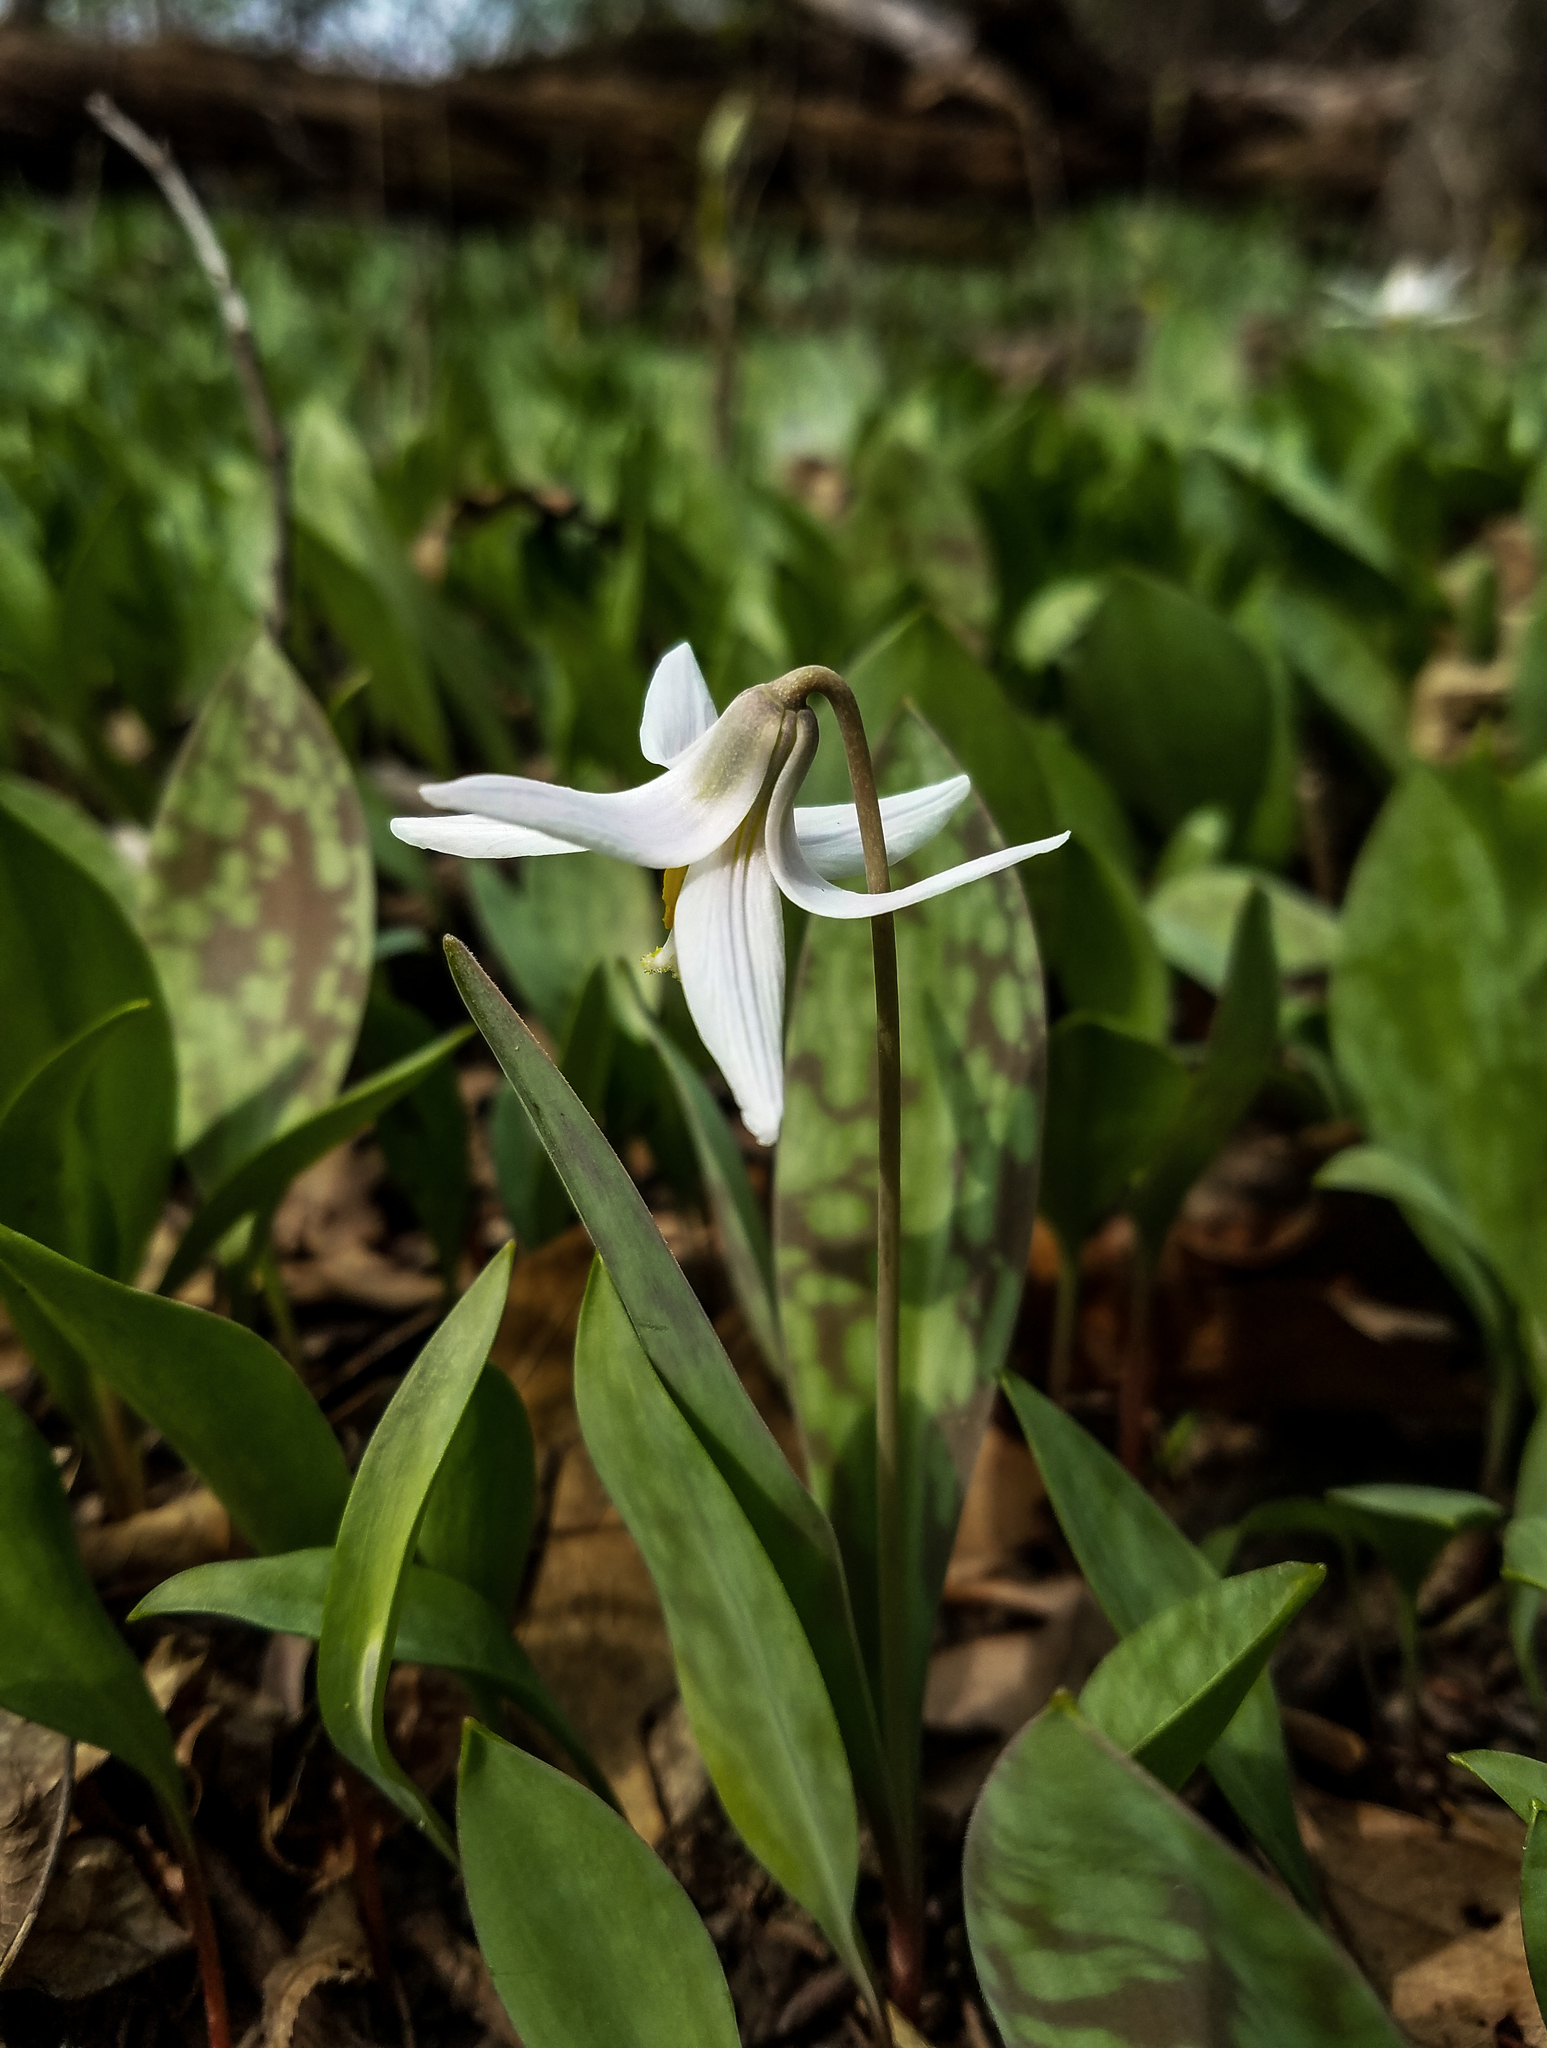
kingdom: Plantae
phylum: Tracheophyta
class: Liliopsida
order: Liliales
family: Liliaceae
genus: Erythronium
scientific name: Erythronium albidum
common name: White trout-lily
